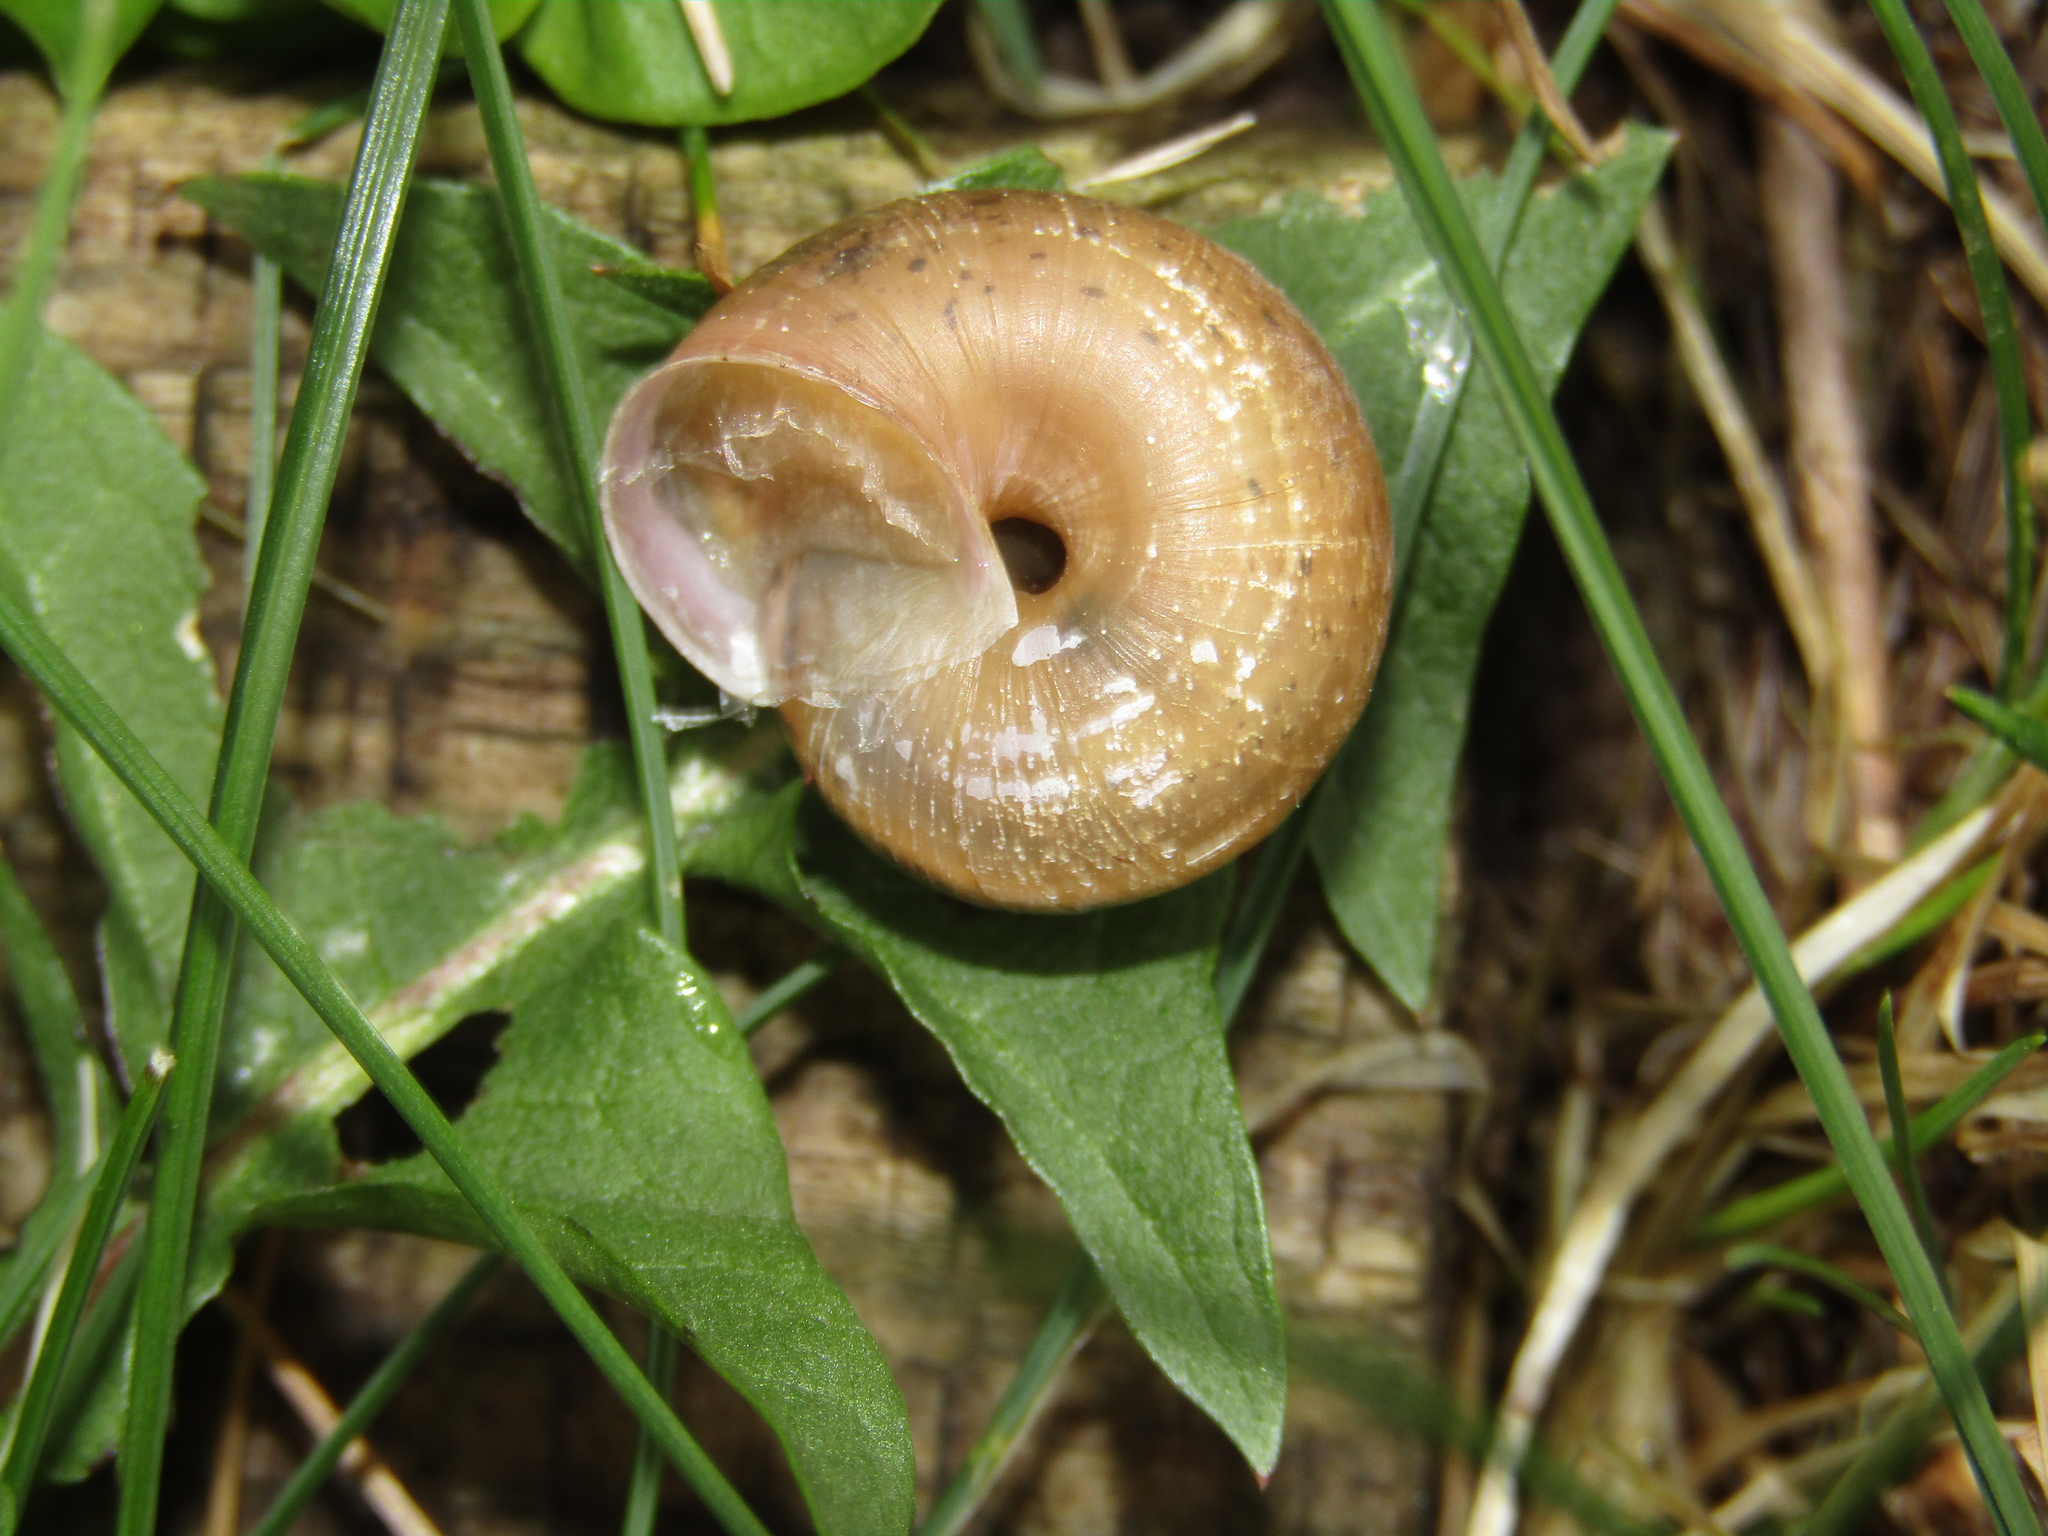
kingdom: Animalia
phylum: Mollusca
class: Gastropoda
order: Stylommatophora
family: Camaenidae
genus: Fruticicola
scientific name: Fruticicola fruticum
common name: Bush snail
